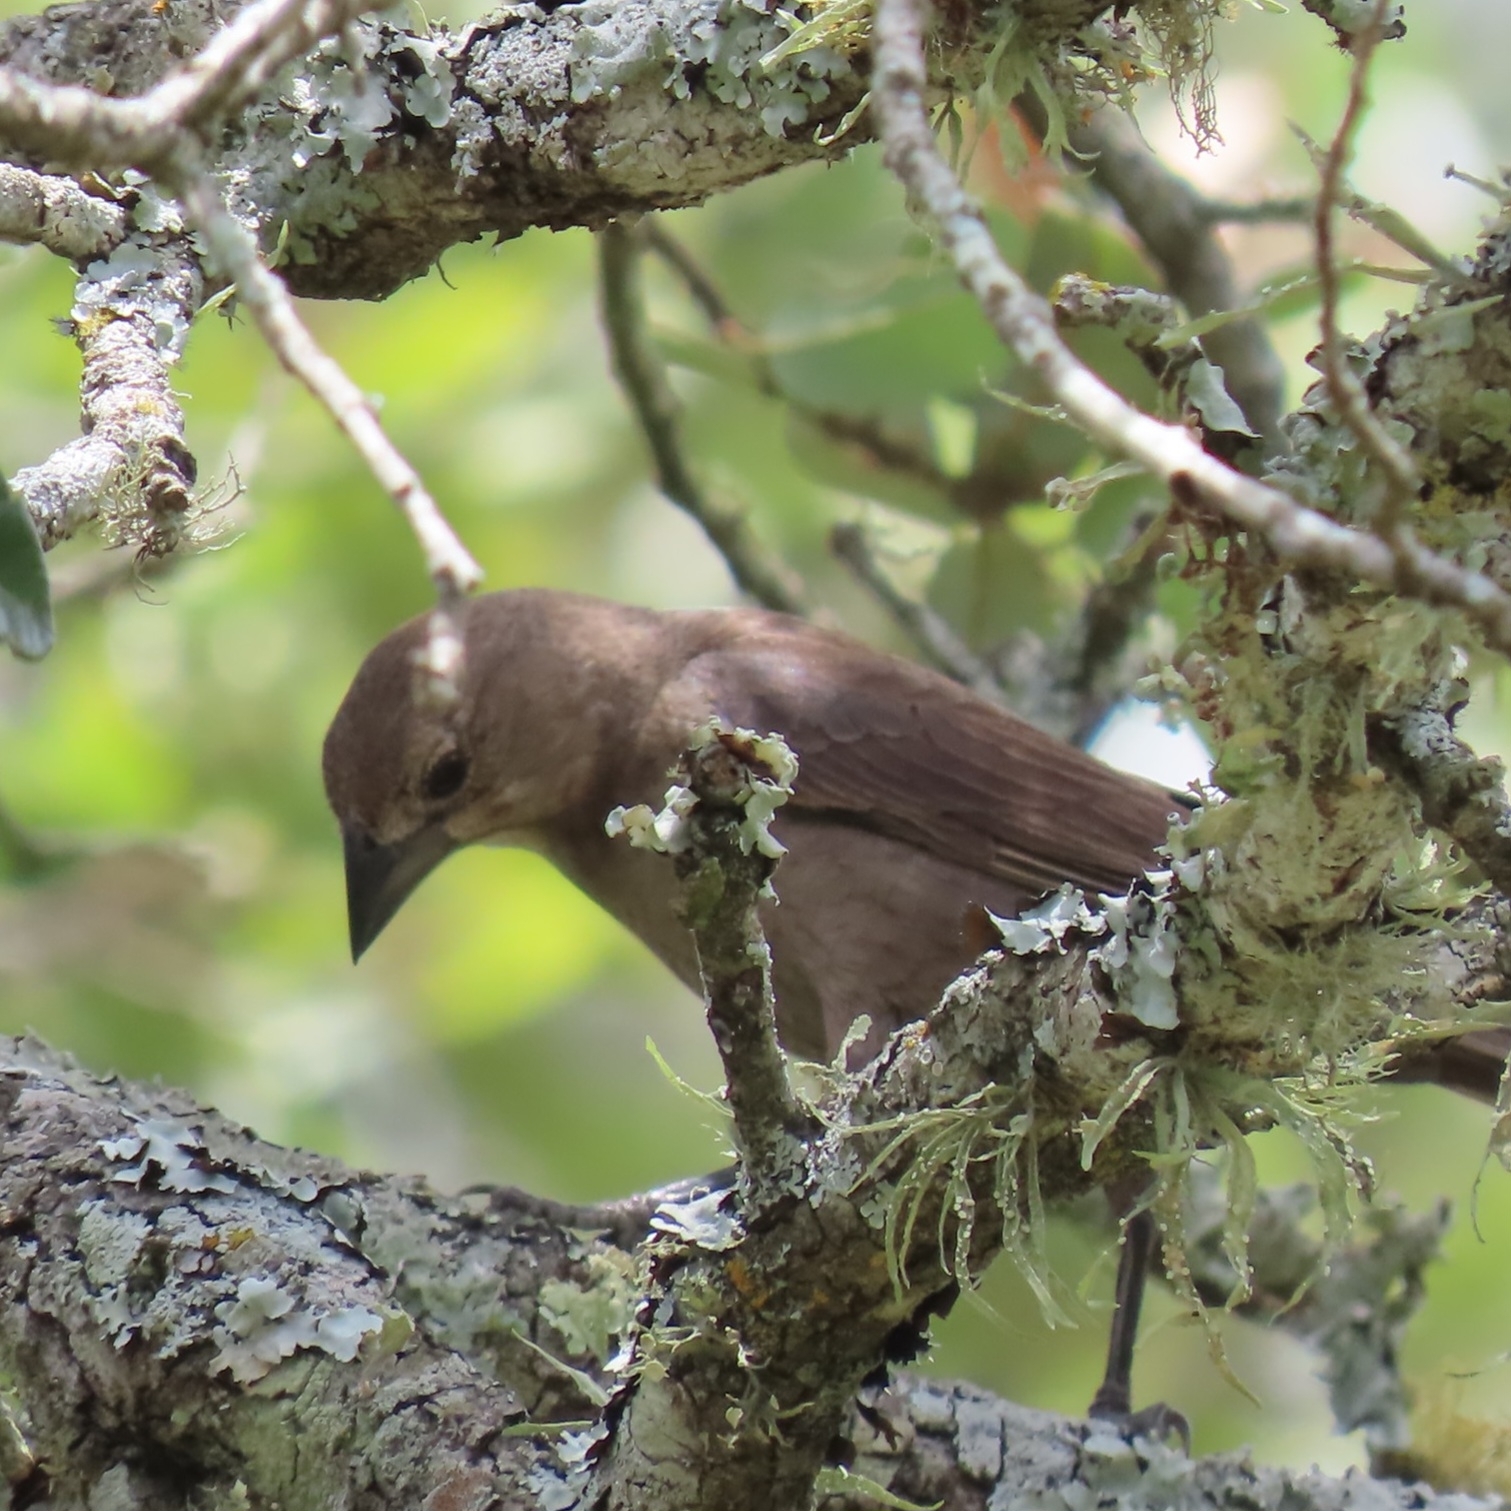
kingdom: Animalia
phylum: Chordata
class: Aves
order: Passeriformes
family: Icteridae
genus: Molothrus
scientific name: Molothrus ater
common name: Brown-headed cowbird
